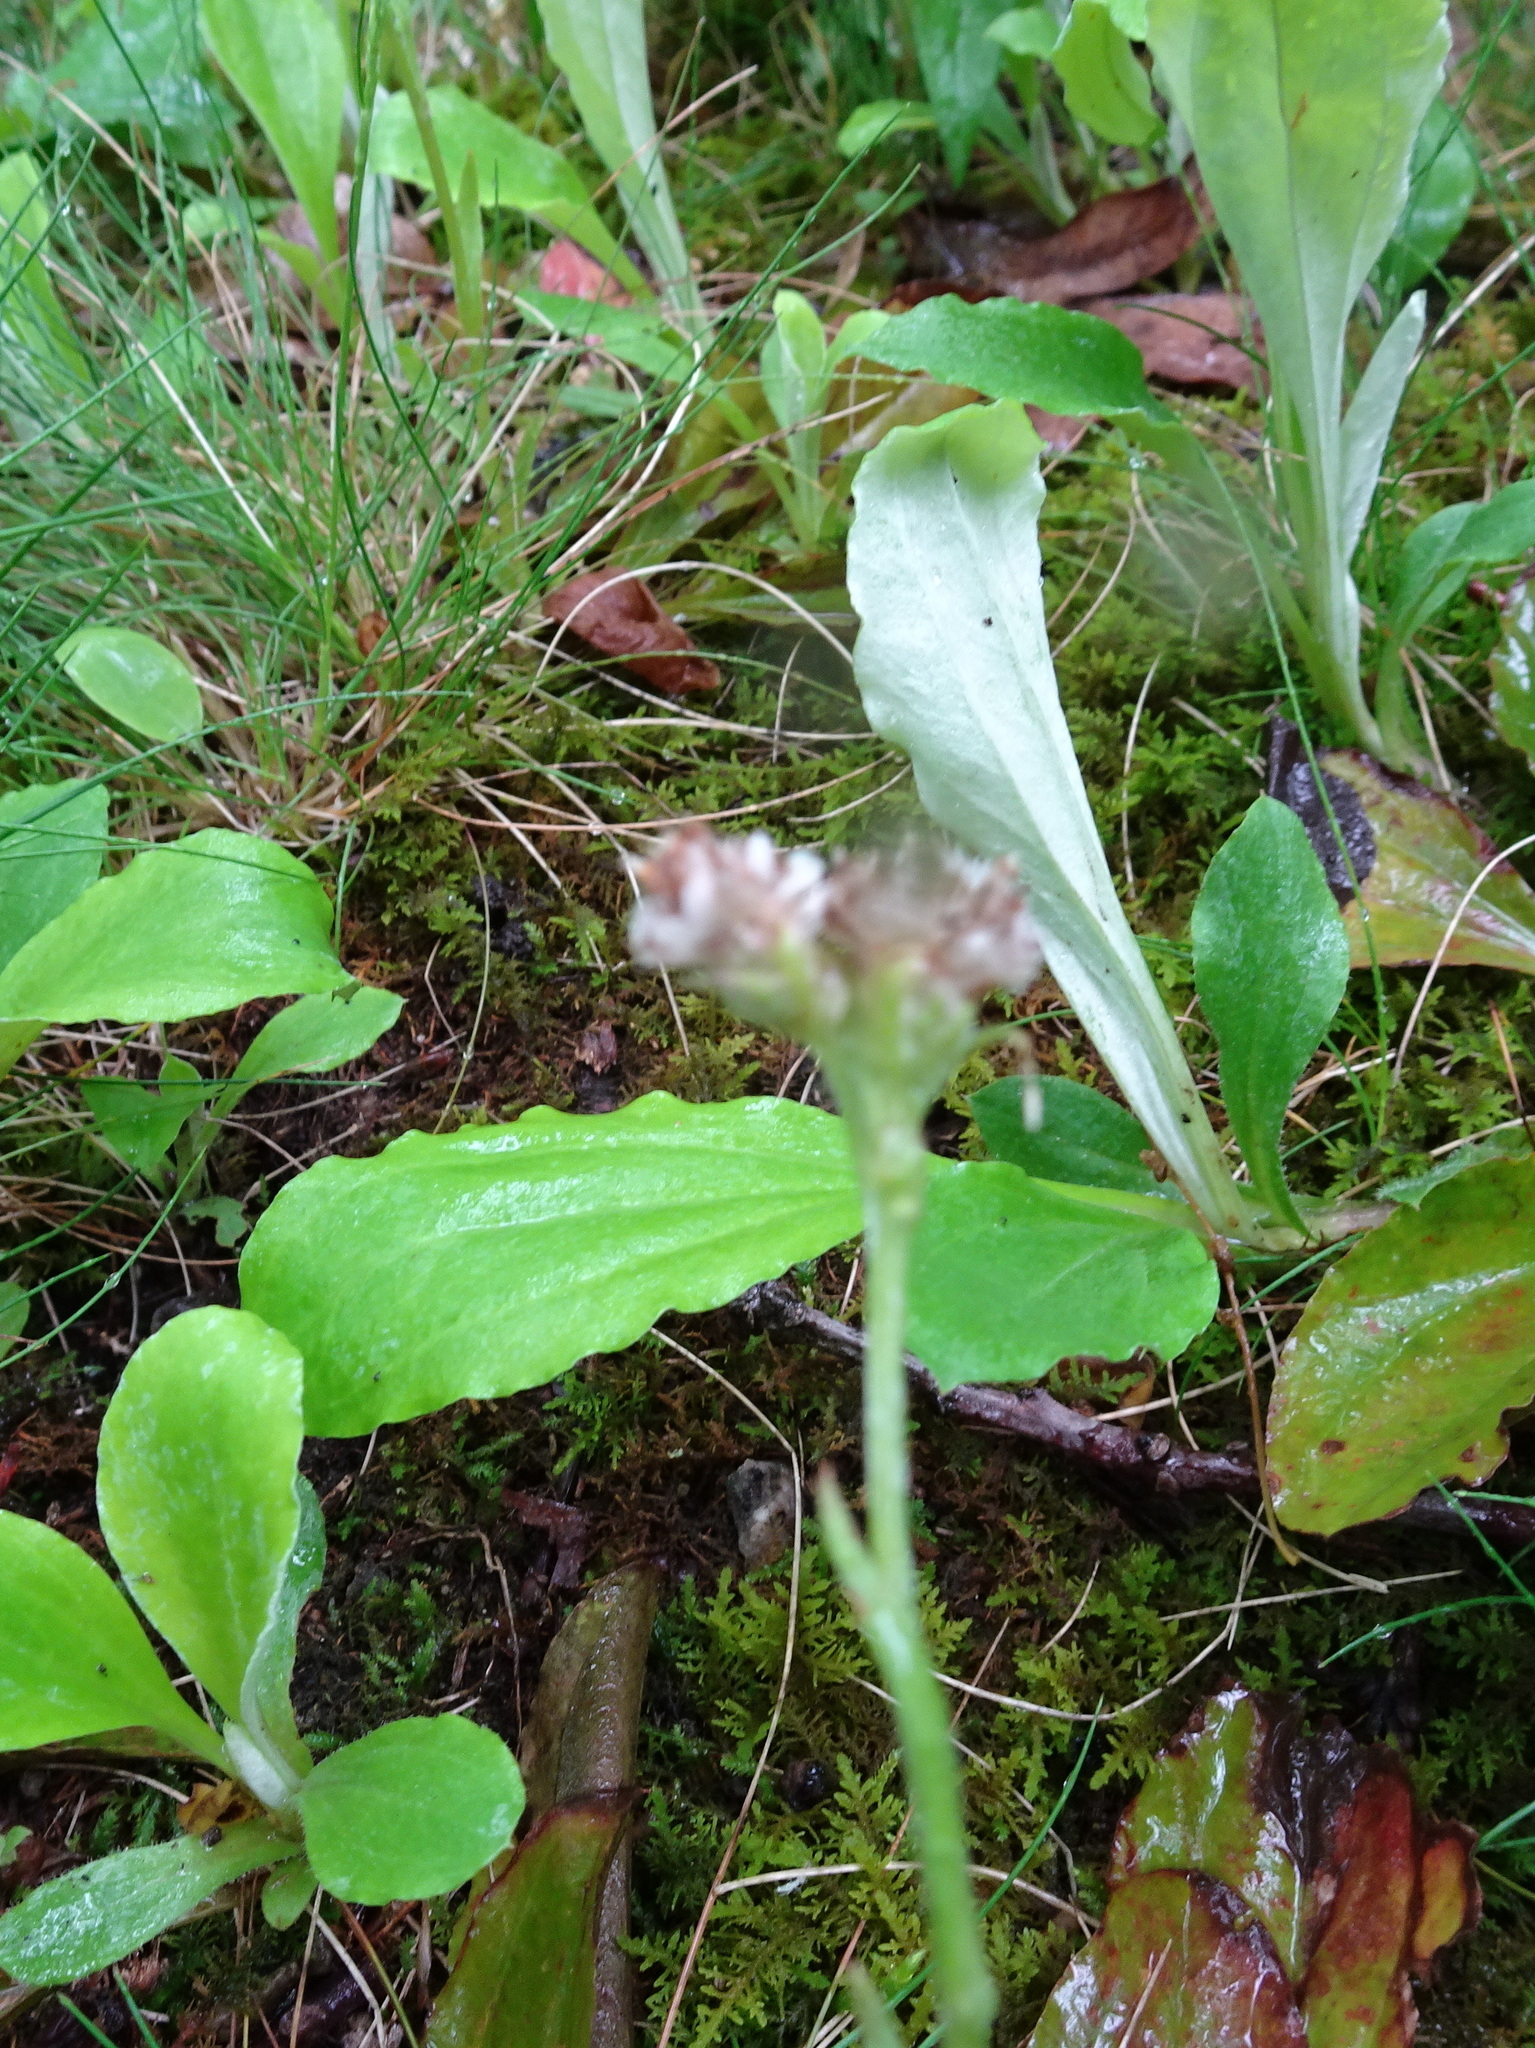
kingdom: Plantae
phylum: Tracheophyta
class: Magnoliopsida
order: Asterales
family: Asteraceae
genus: Antennaria
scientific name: Antennaria parlinii
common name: Parlin's pussytoes
